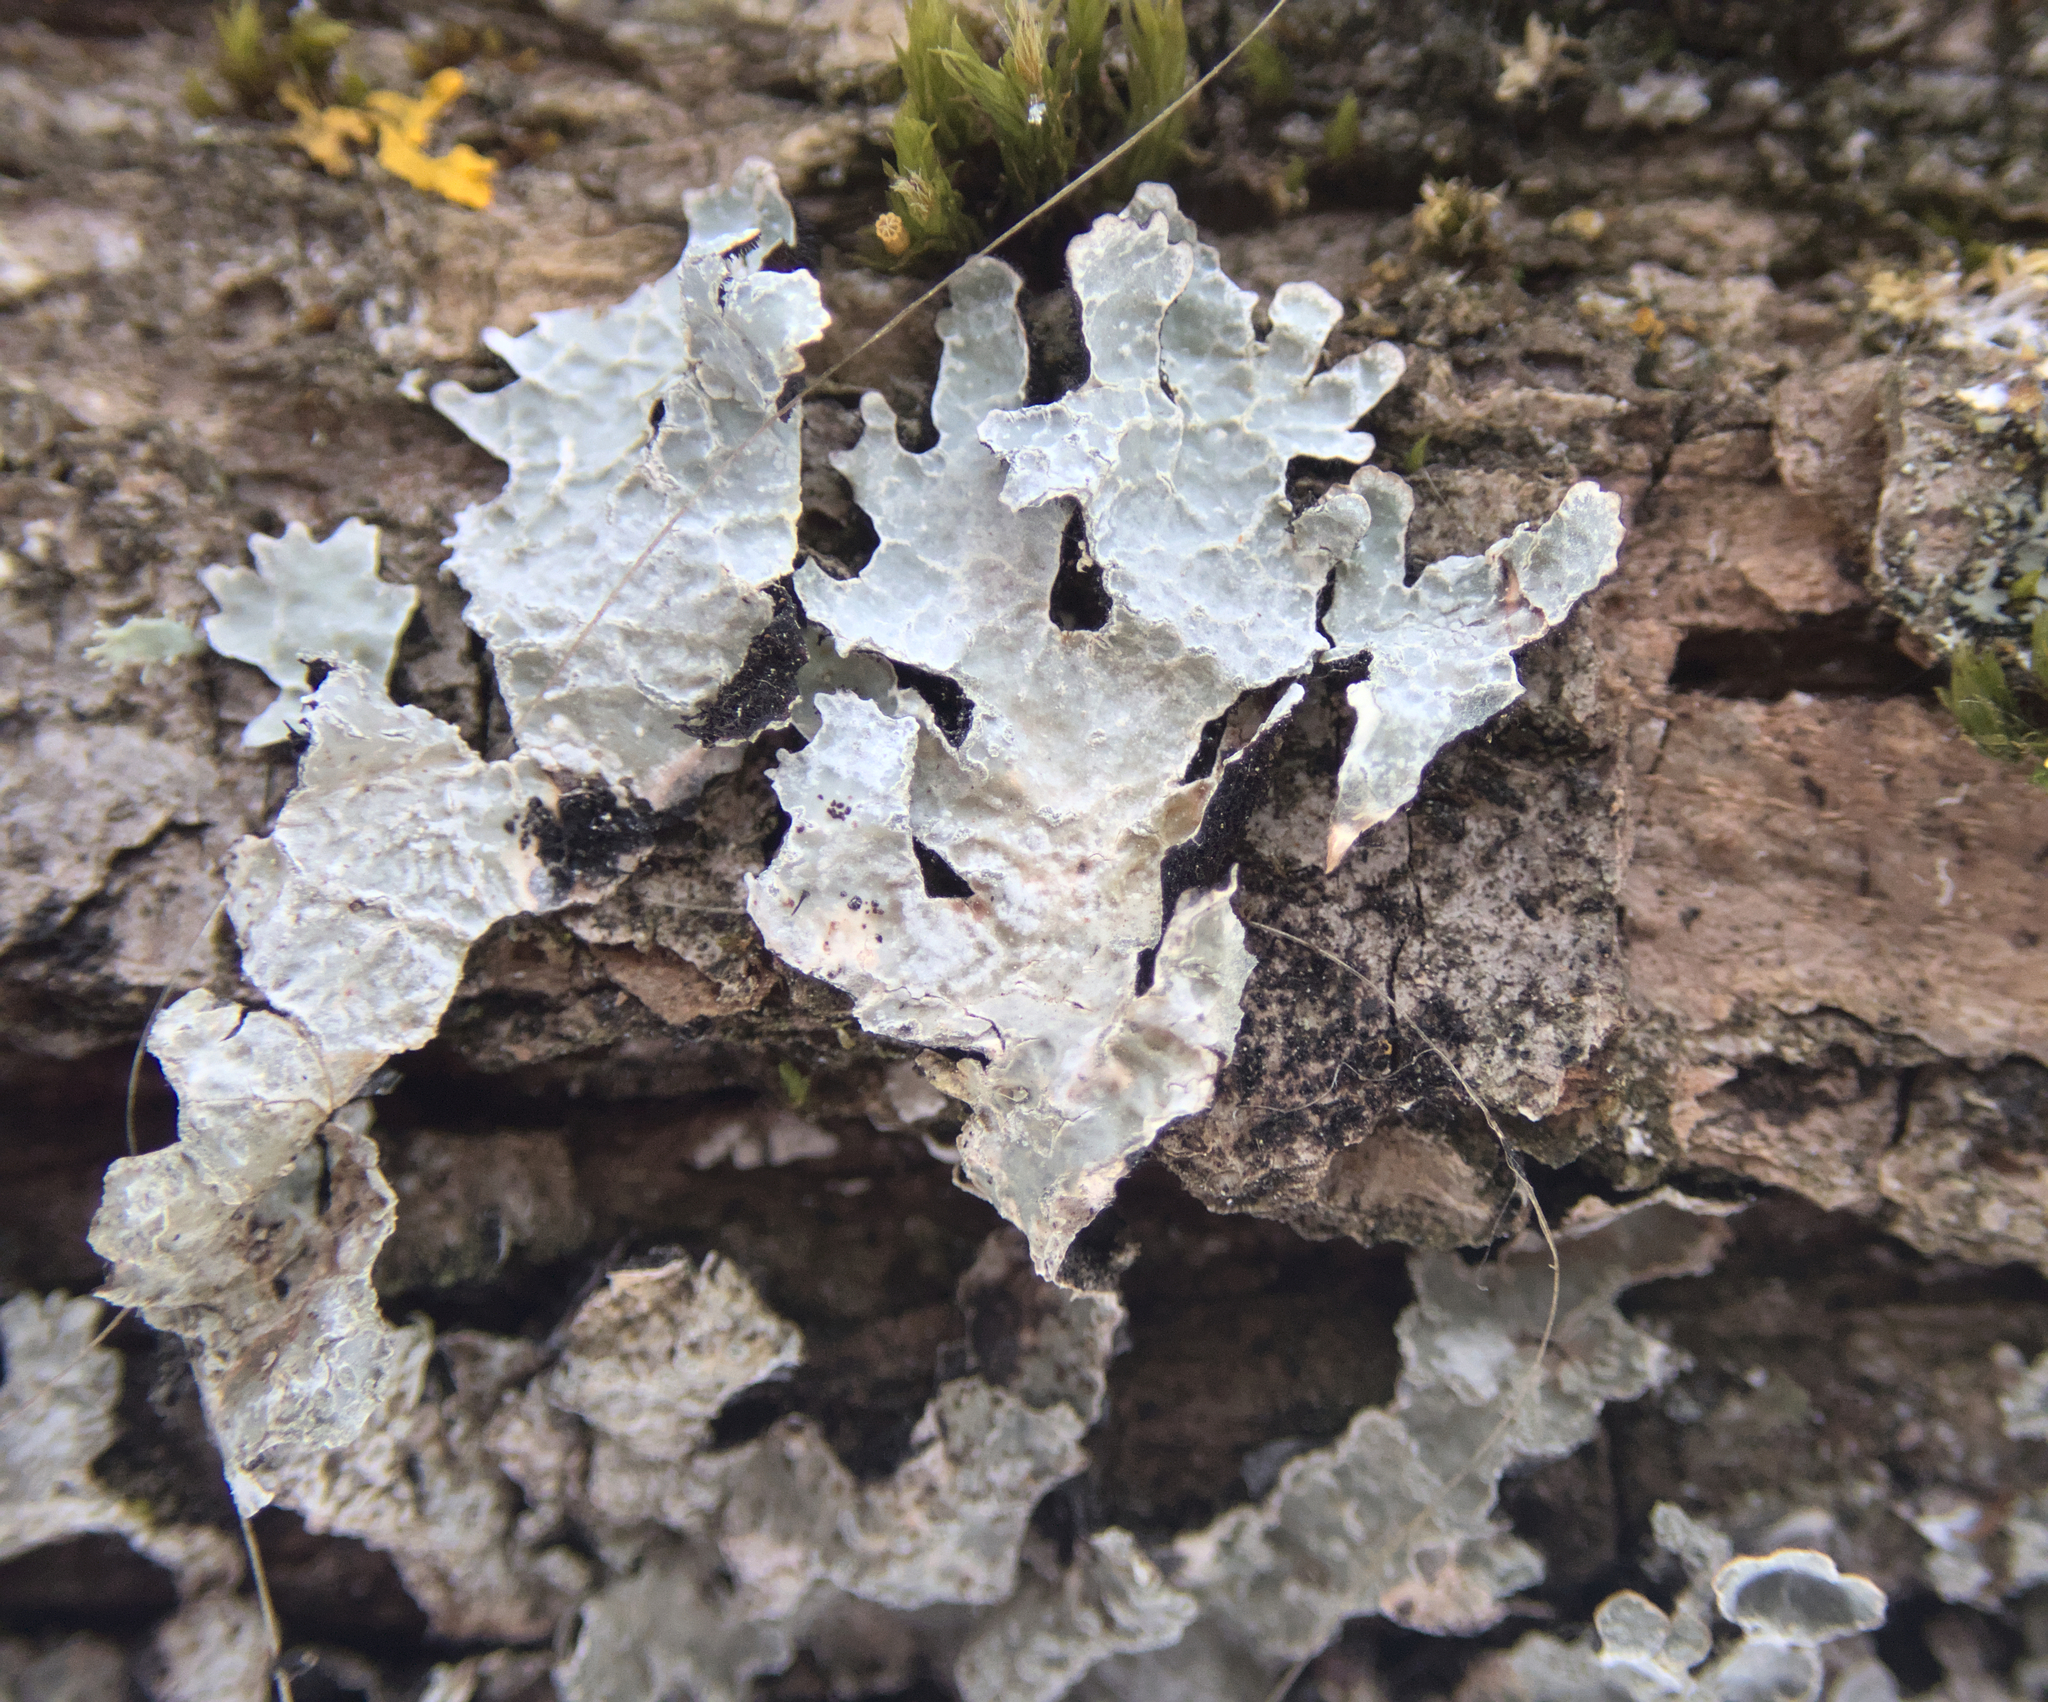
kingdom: Fungi
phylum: Ascomycota
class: Lecanoromycetes
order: Lecanorales
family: Parmeliaceae
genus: Parmelia
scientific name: Parmelia sulcata
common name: Netted shield lichen
